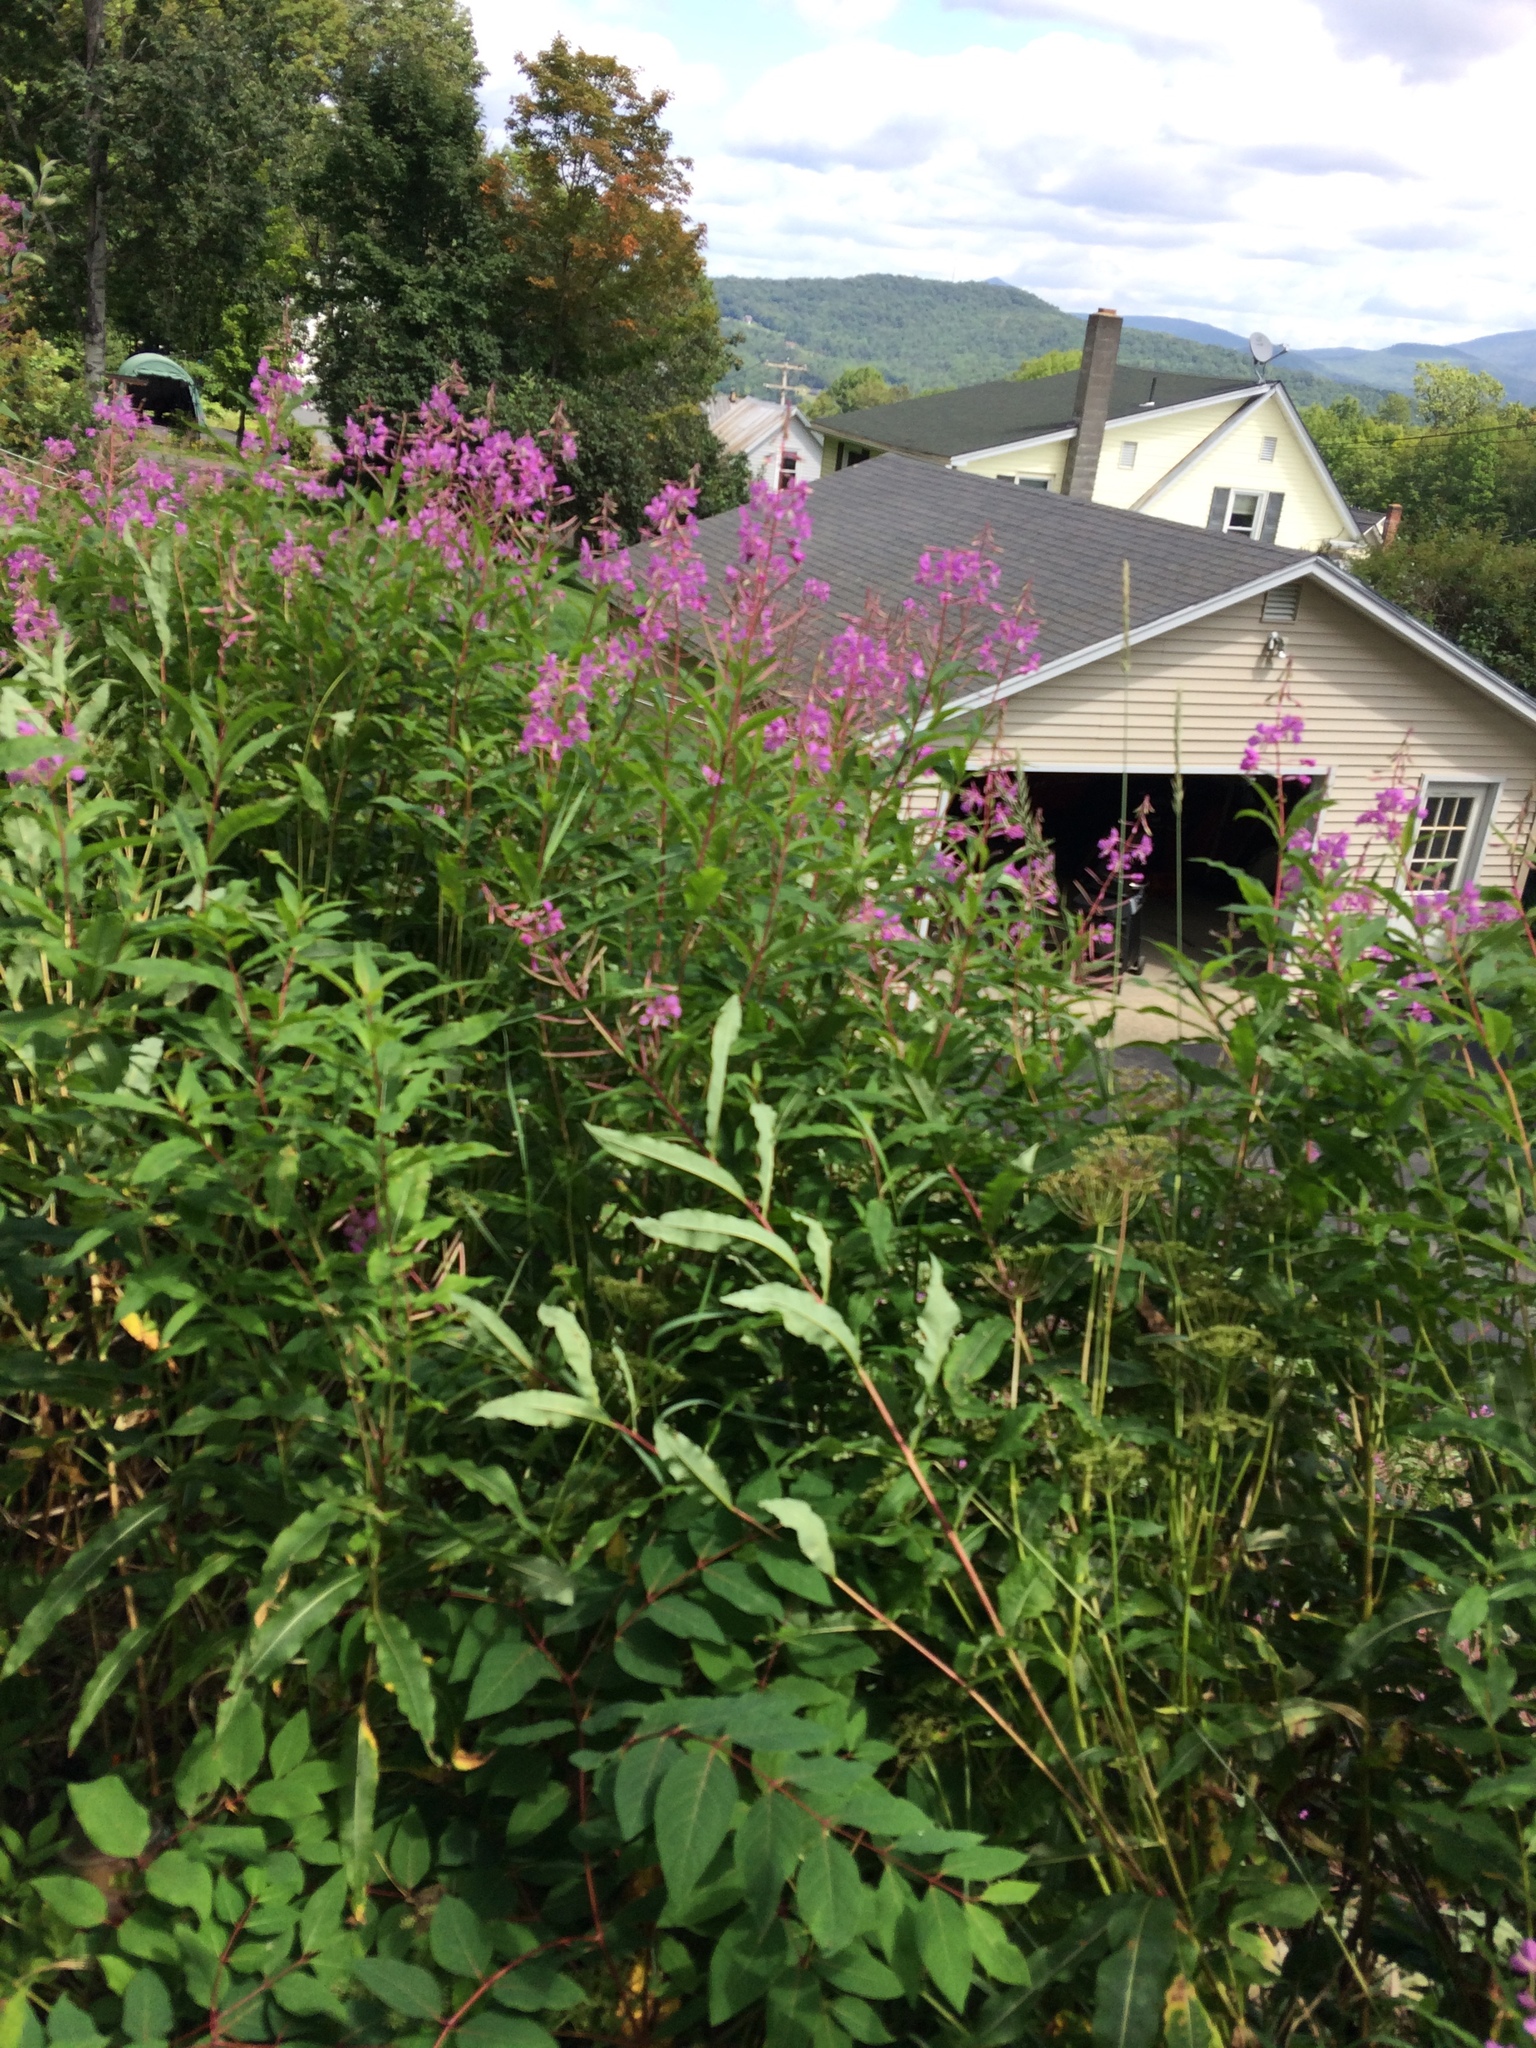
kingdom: Plantae
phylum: Tracheophyta
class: Magnoliopsida
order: Myrtales
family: Onagraceae
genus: Chamaenerion
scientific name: Chamaenerion angustifolium
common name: Fireweed
